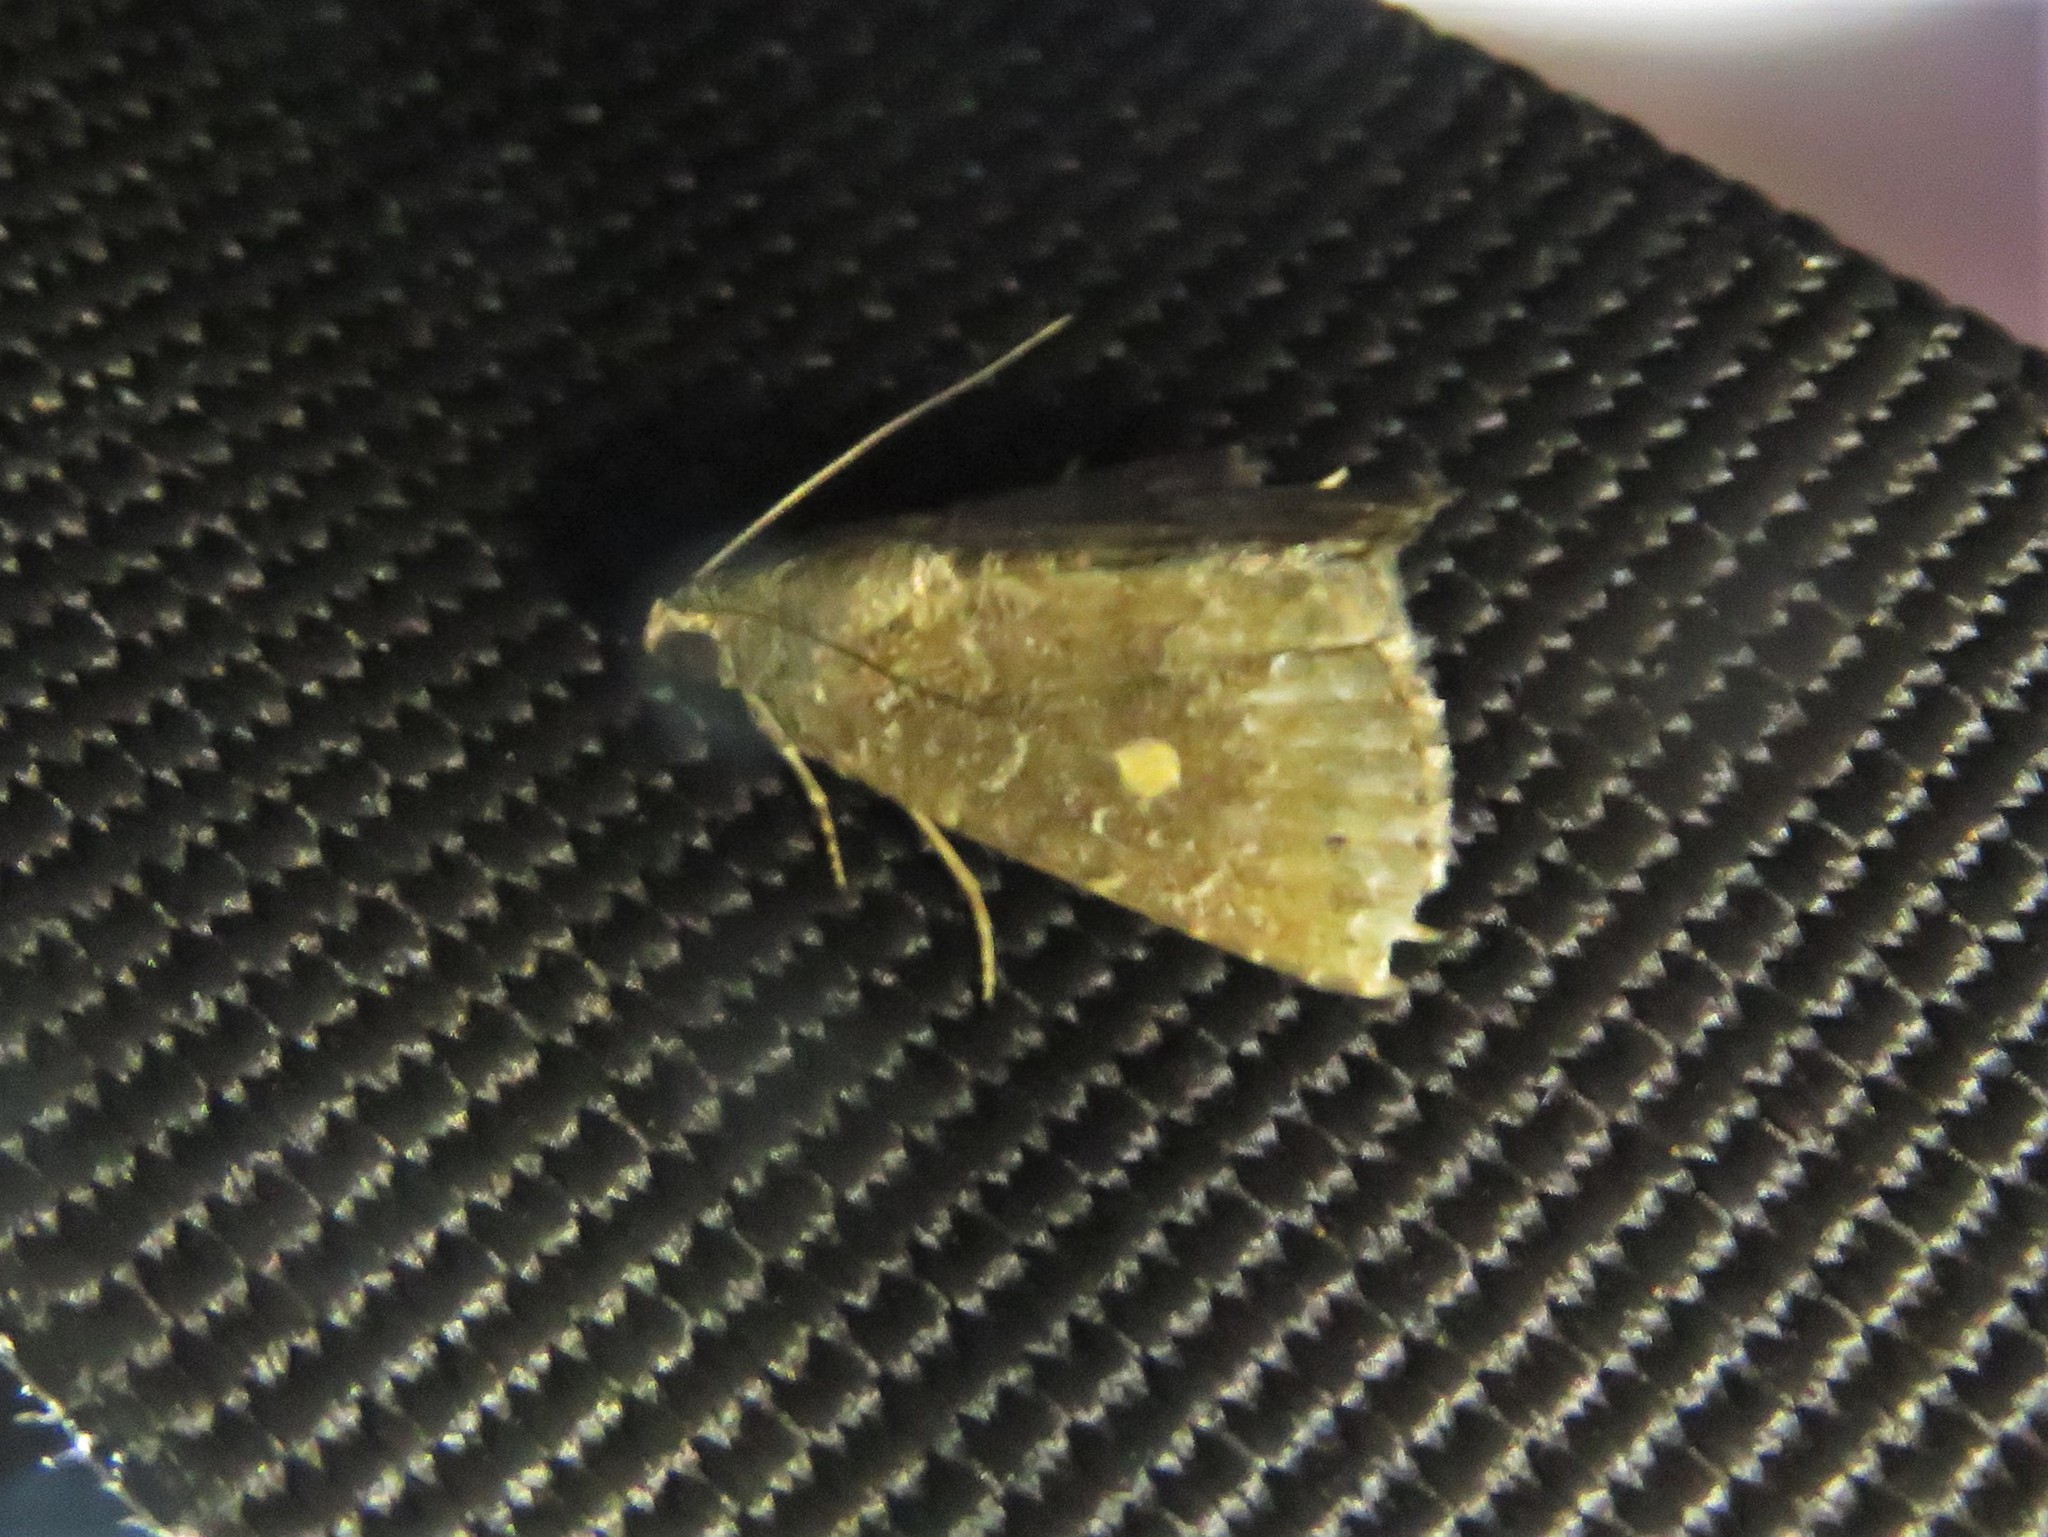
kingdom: Animalia
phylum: Arthropoda
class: Insecta
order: Lepidoptera
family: Noctuidae
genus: Amyna
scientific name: Amyna stricta
